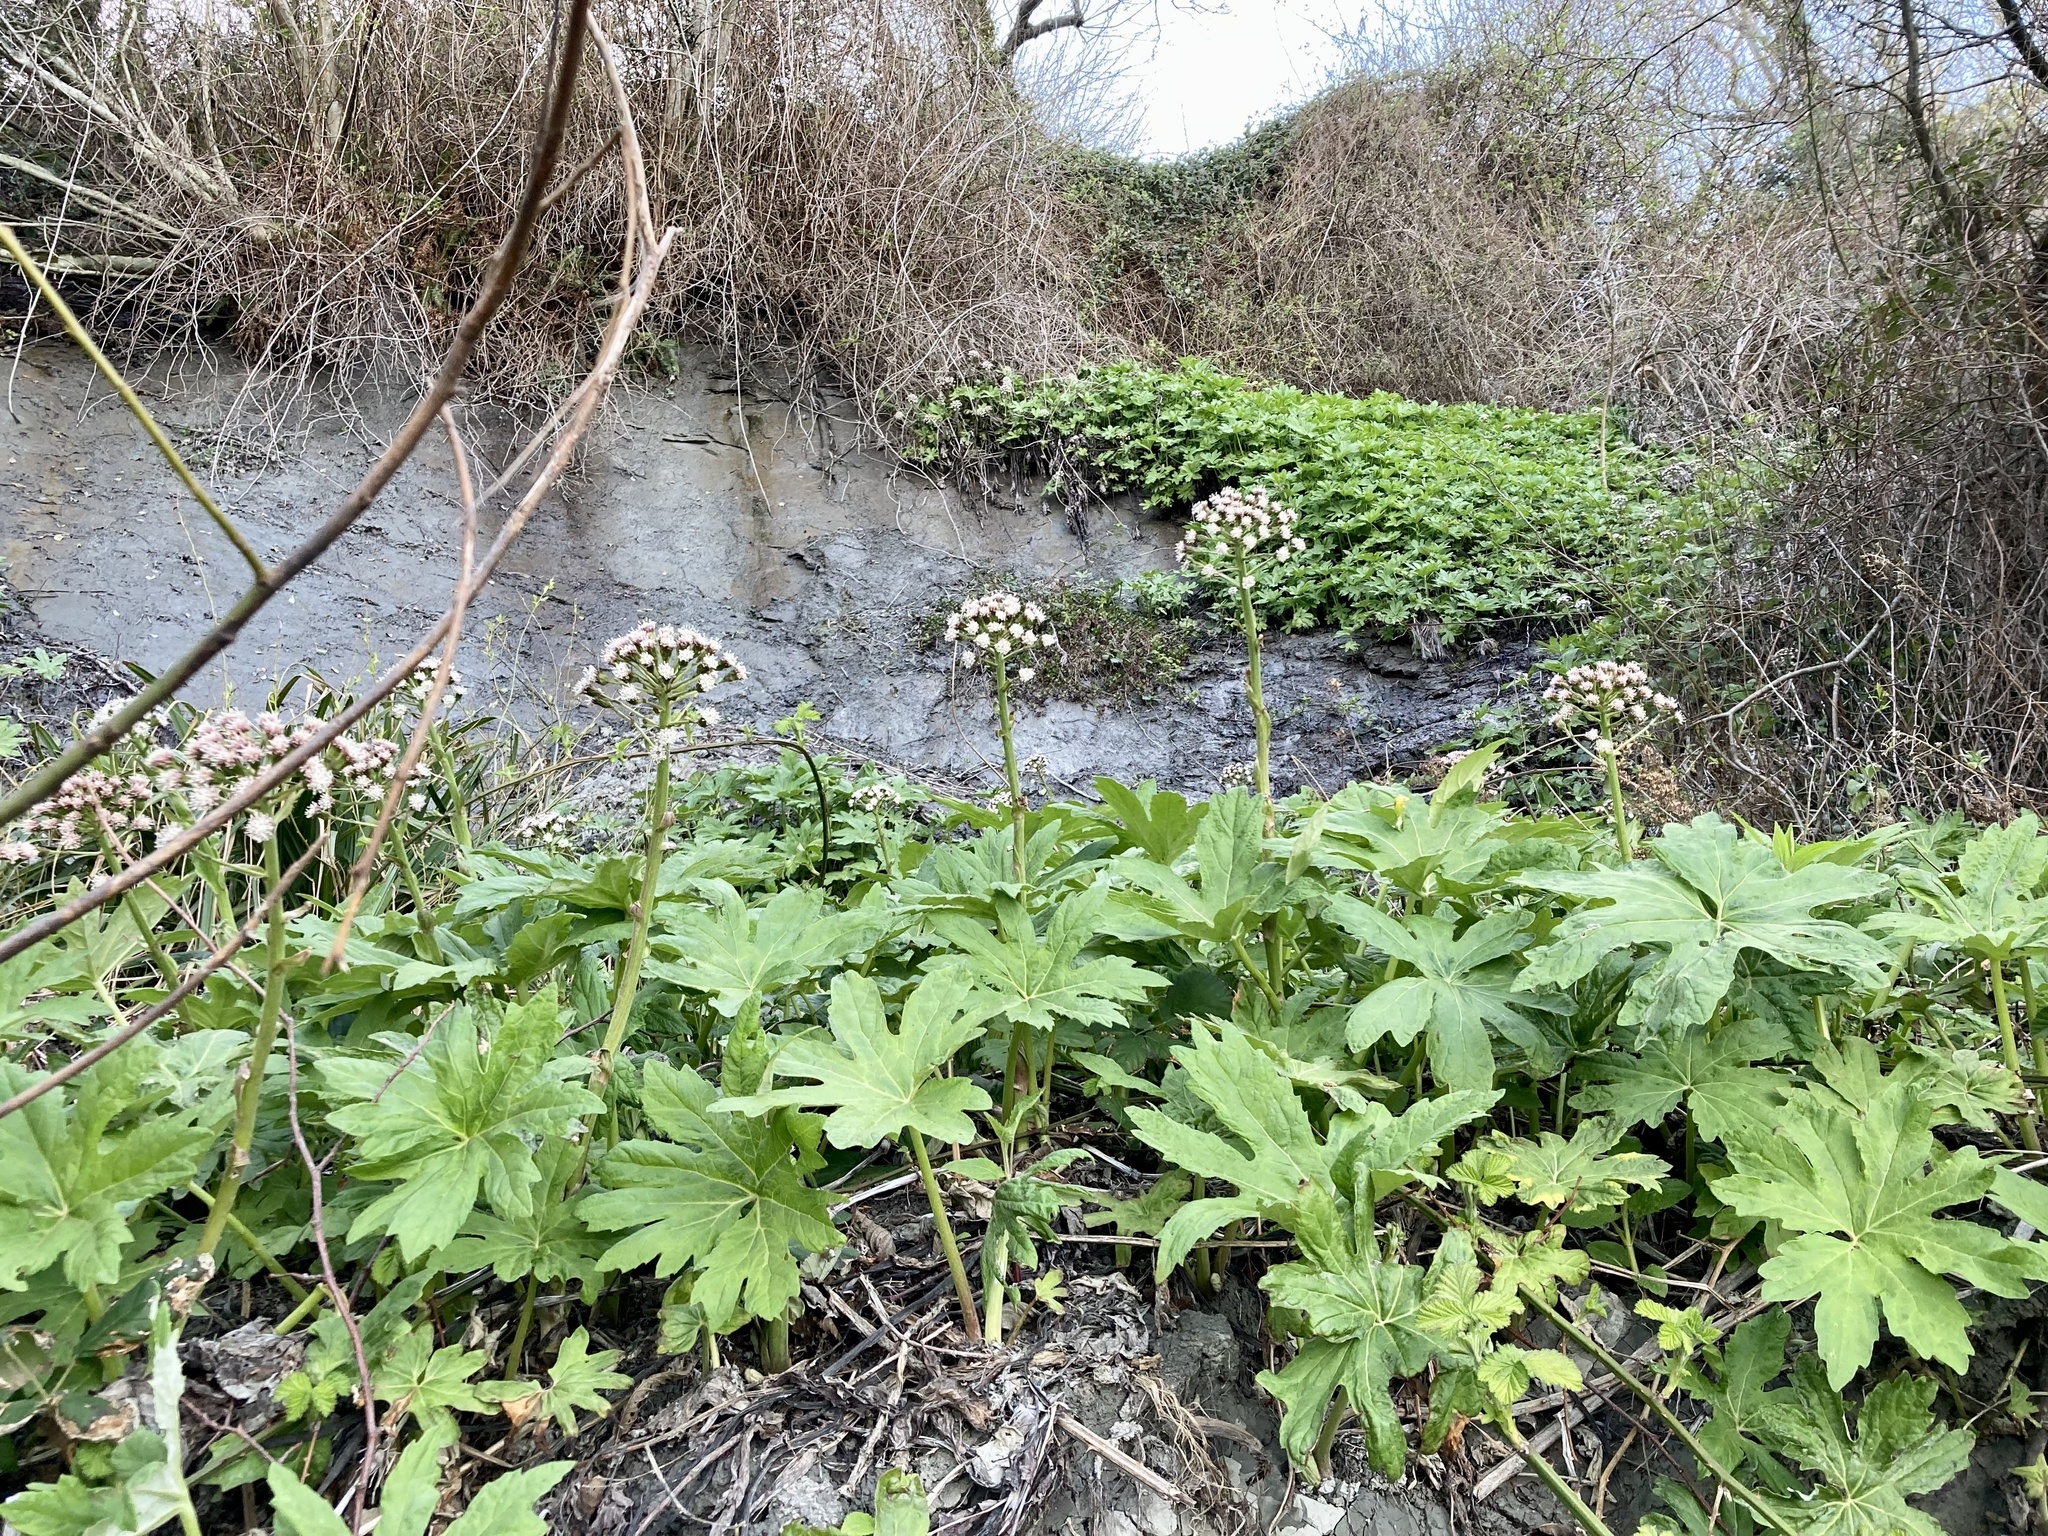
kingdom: Plantae
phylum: Tracheophyta
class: Magnoliopsida
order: Asterales
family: Asteraceae
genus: Petasites
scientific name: Petasites frigidus
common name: Arctic butterbur
